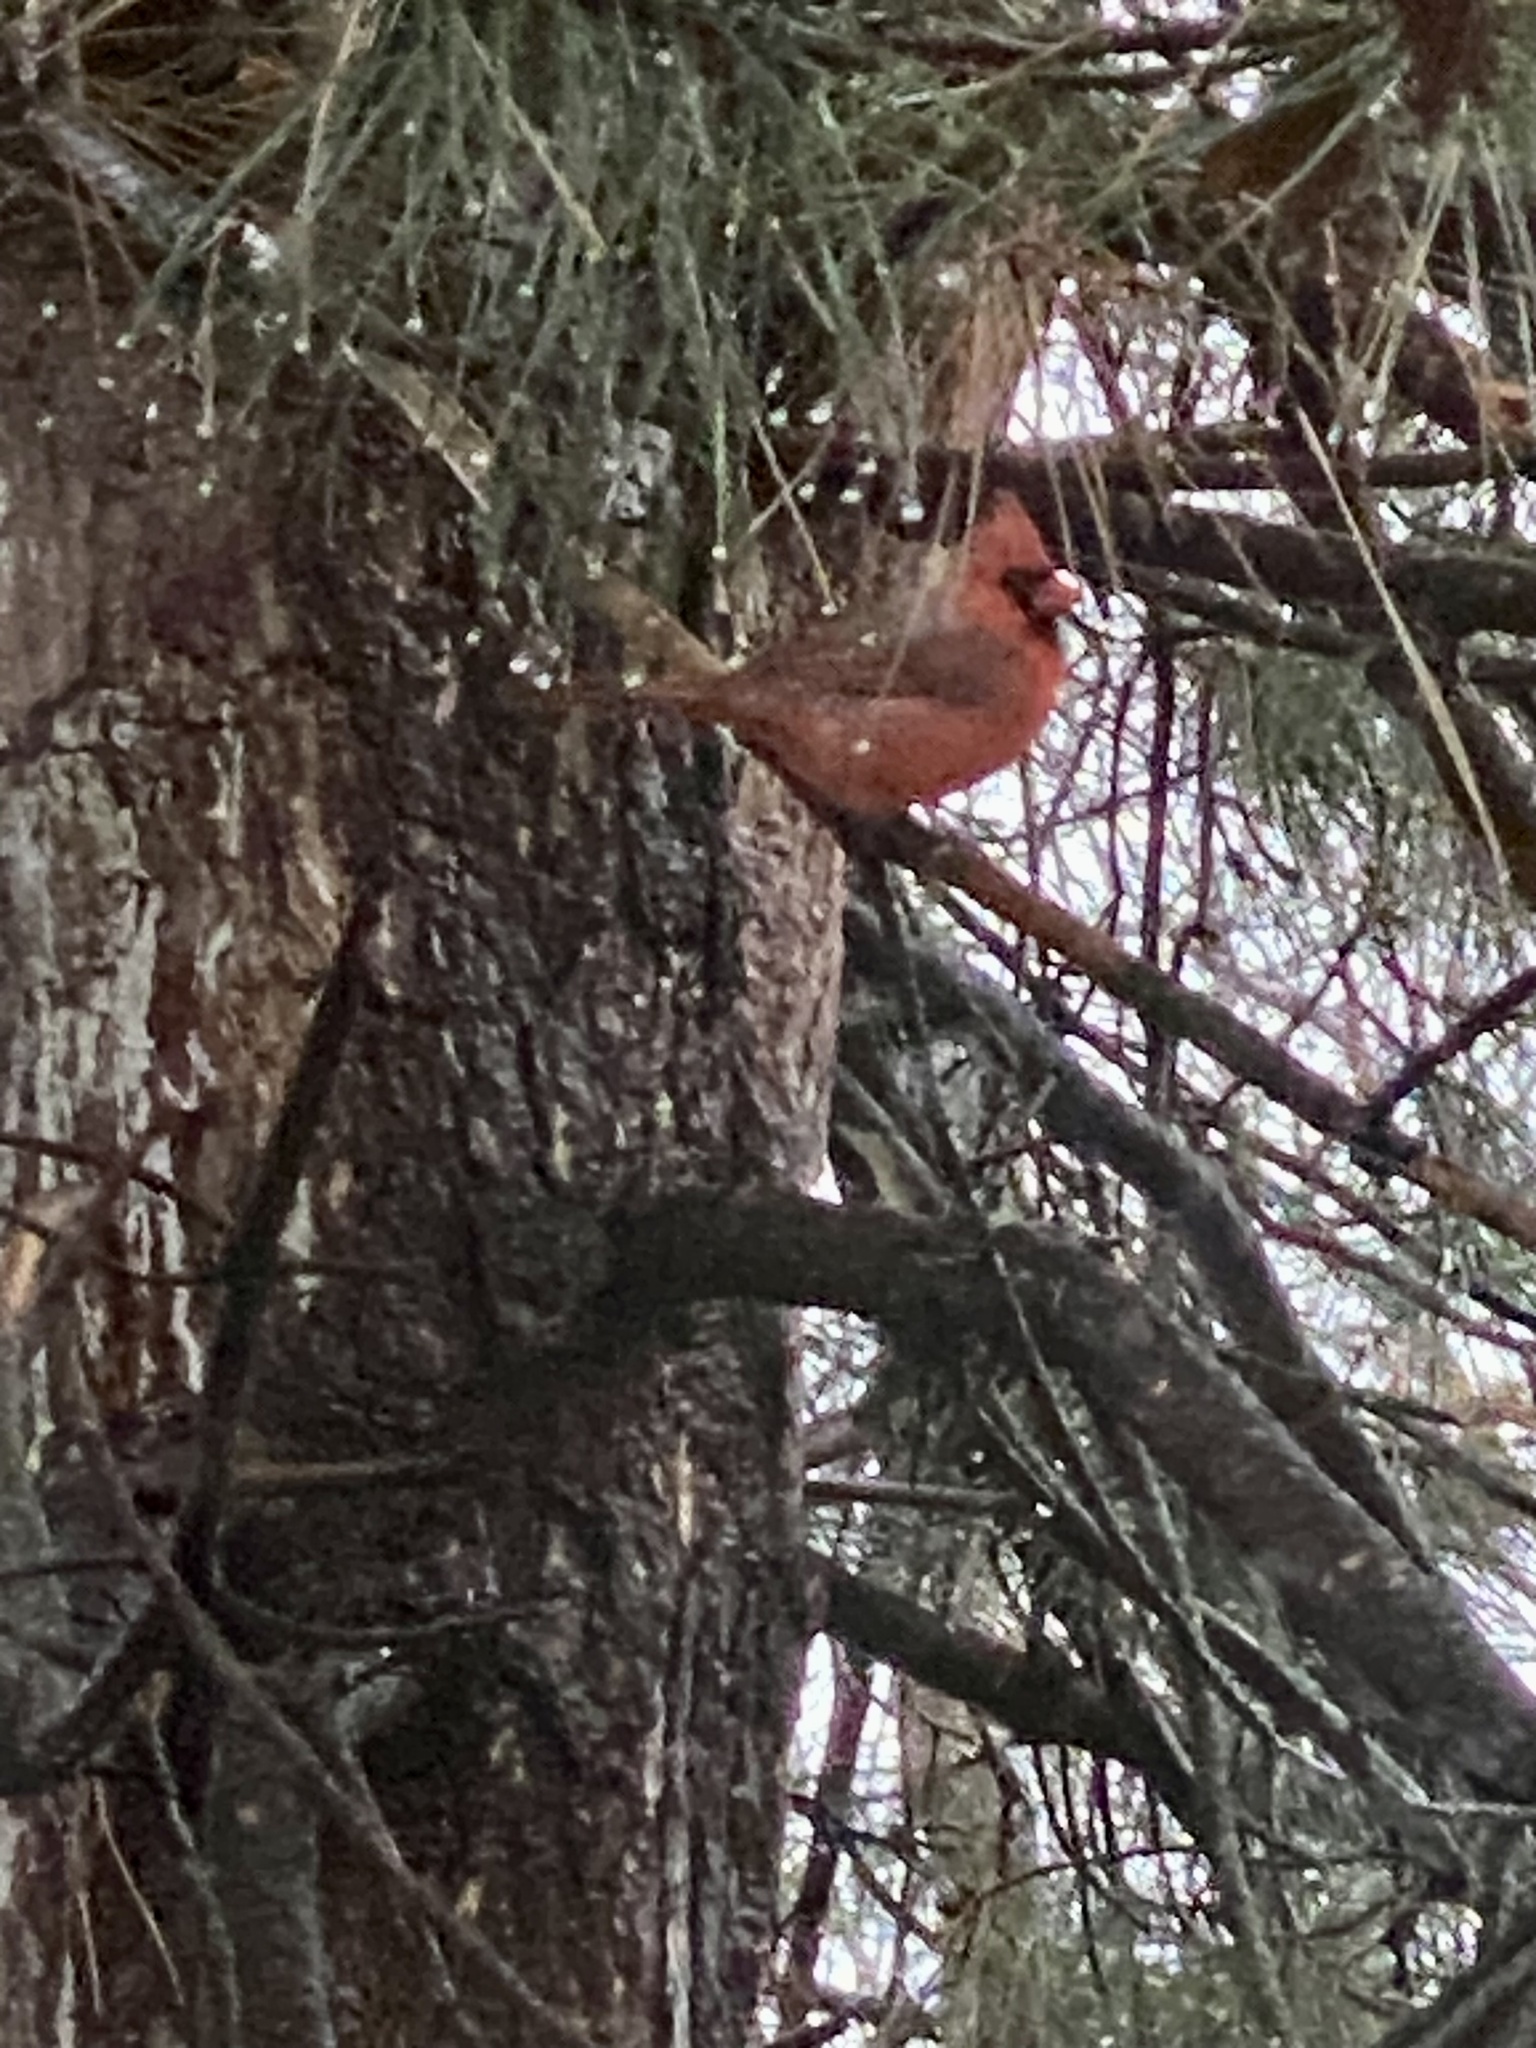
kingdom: Animalia
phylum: Chordata
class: Aves
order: Passeriformes
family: Cardinalidae
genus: Cardinalis
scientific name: Cardinalis cardinalis
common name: Northern cardinal
